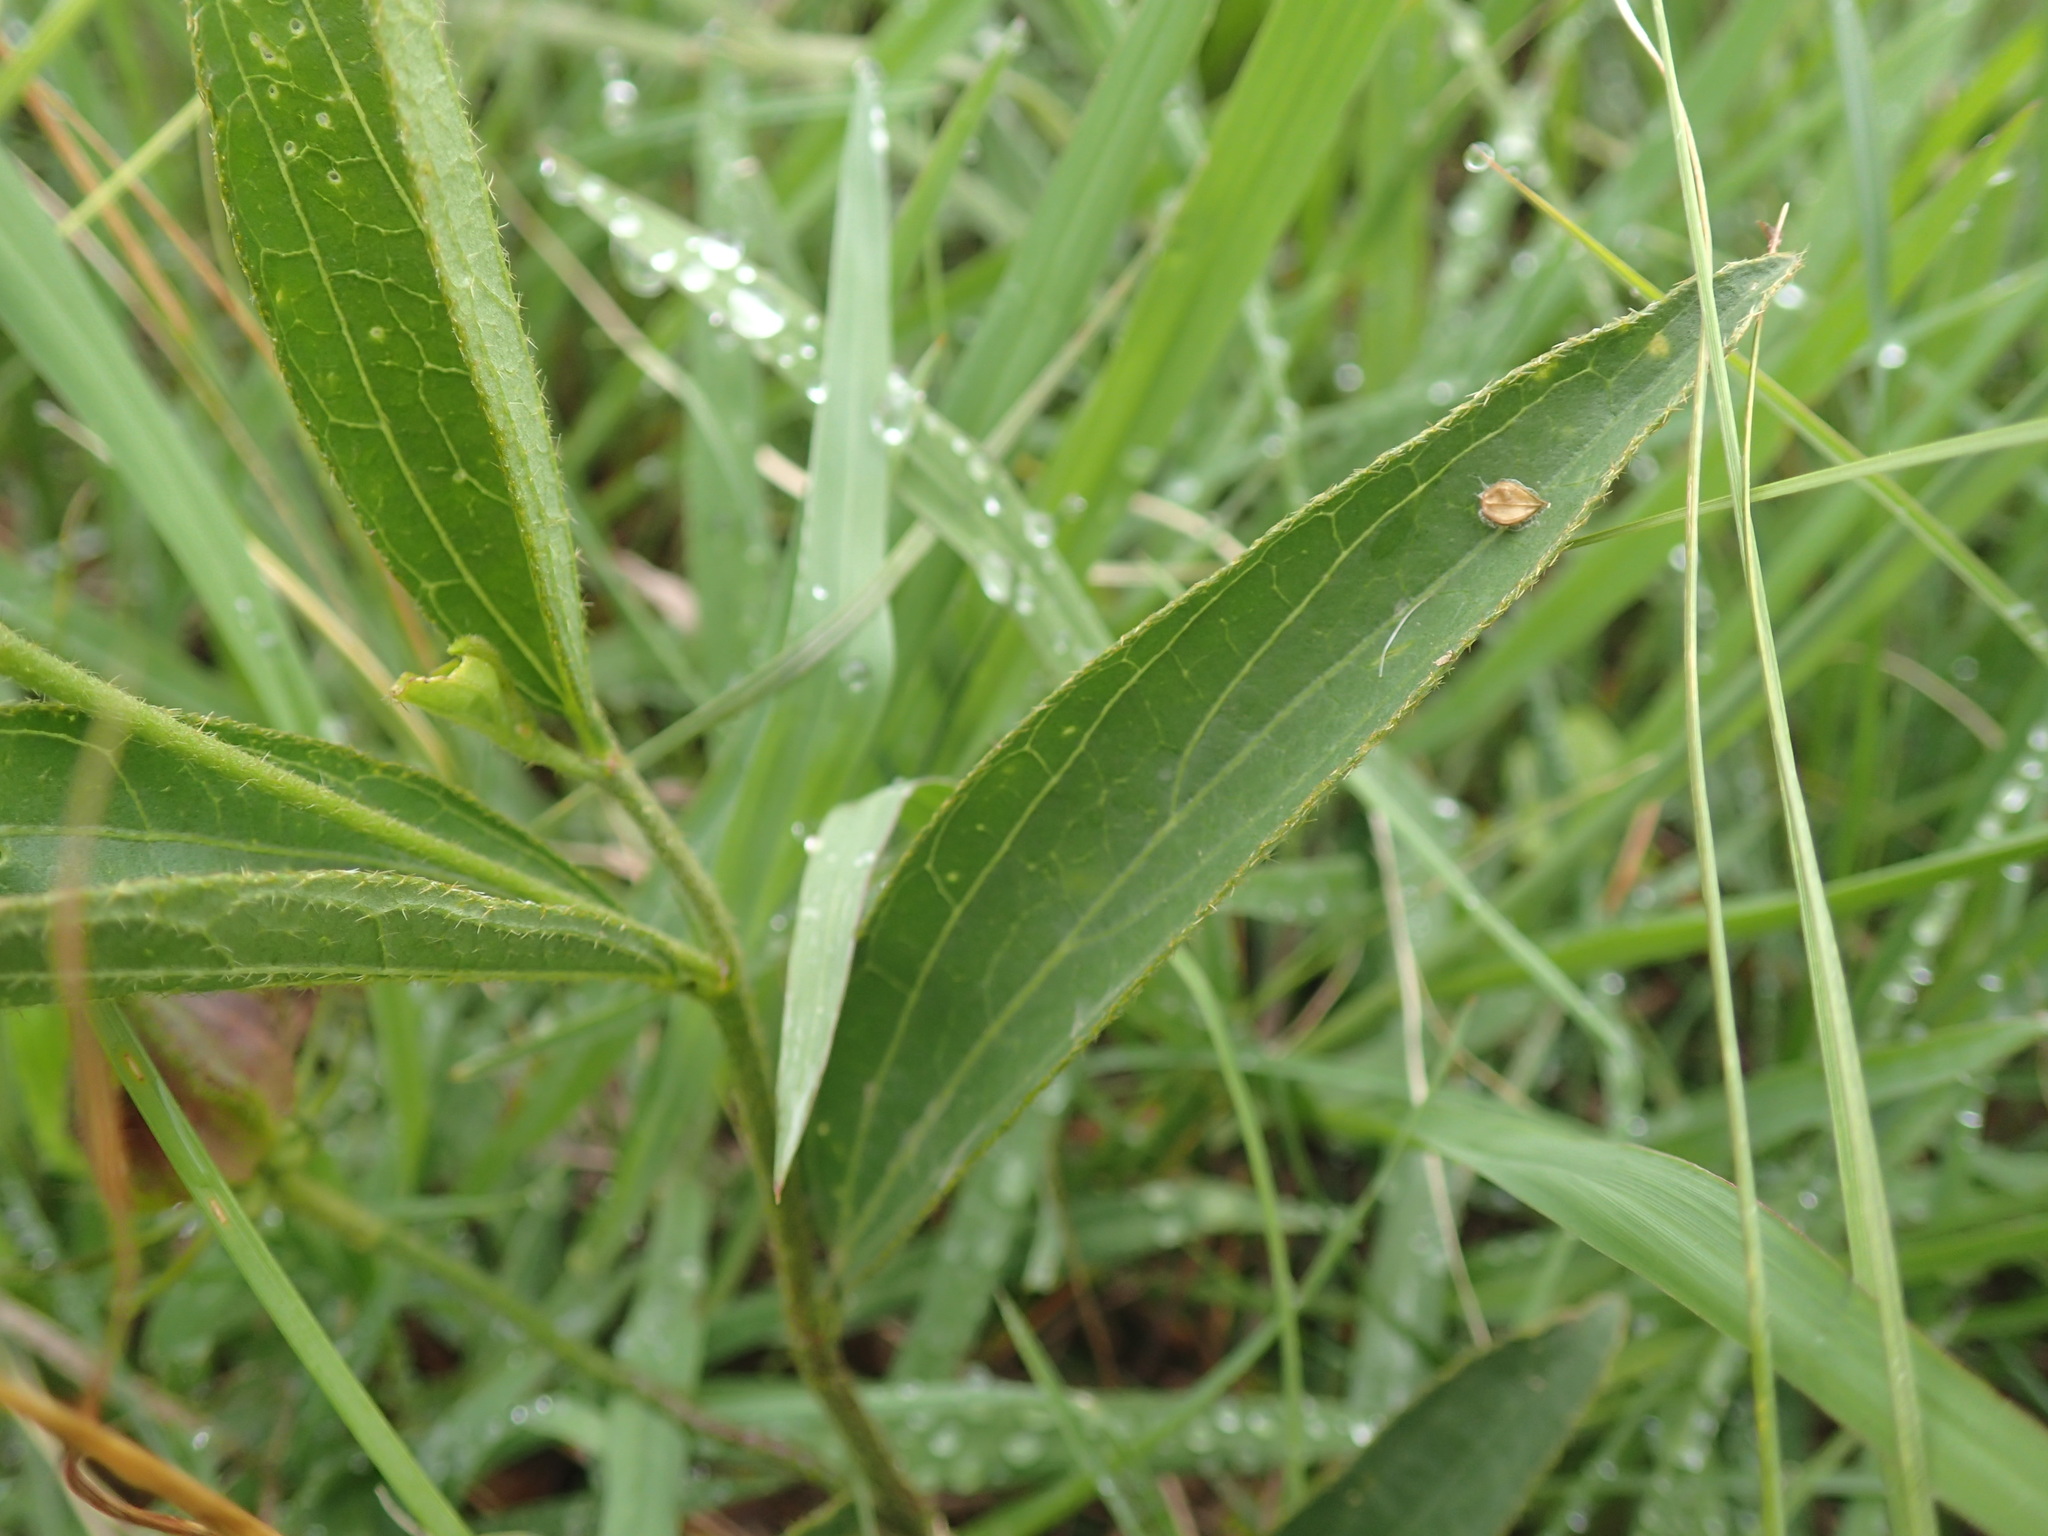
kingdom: Plantae
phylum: Tracheophyta
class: Magnoliopsida
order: Malvales
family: Malvaceae
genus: Hibiscus
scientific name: Hibiscus aethiopicus
